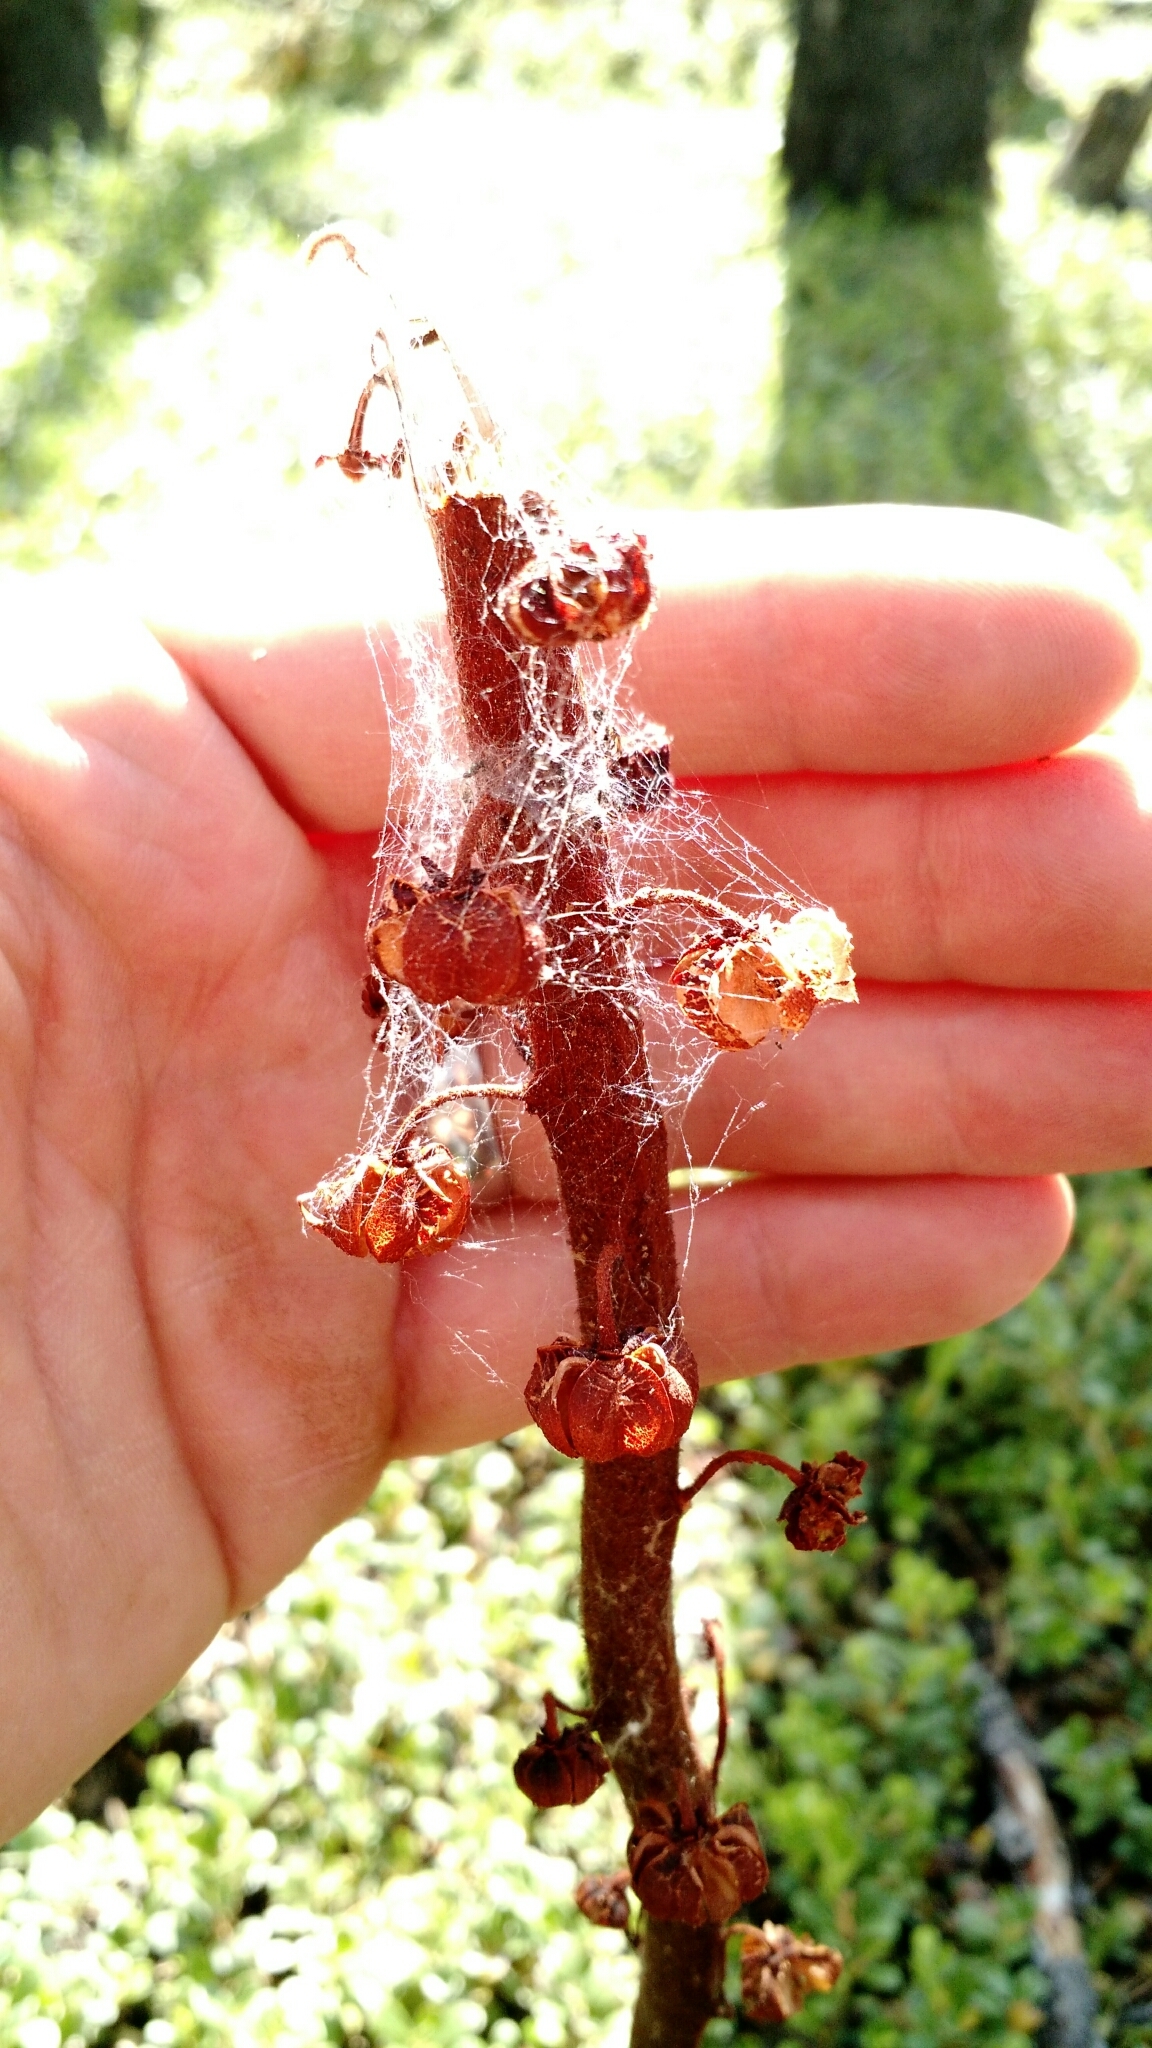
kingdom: Plantae
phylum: Tracheophyta
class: Magnoliopsida
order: Ericales
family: Ericaceae
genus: Pterospora
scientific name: Pterospora andromedea
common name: Giant bird's-nest
